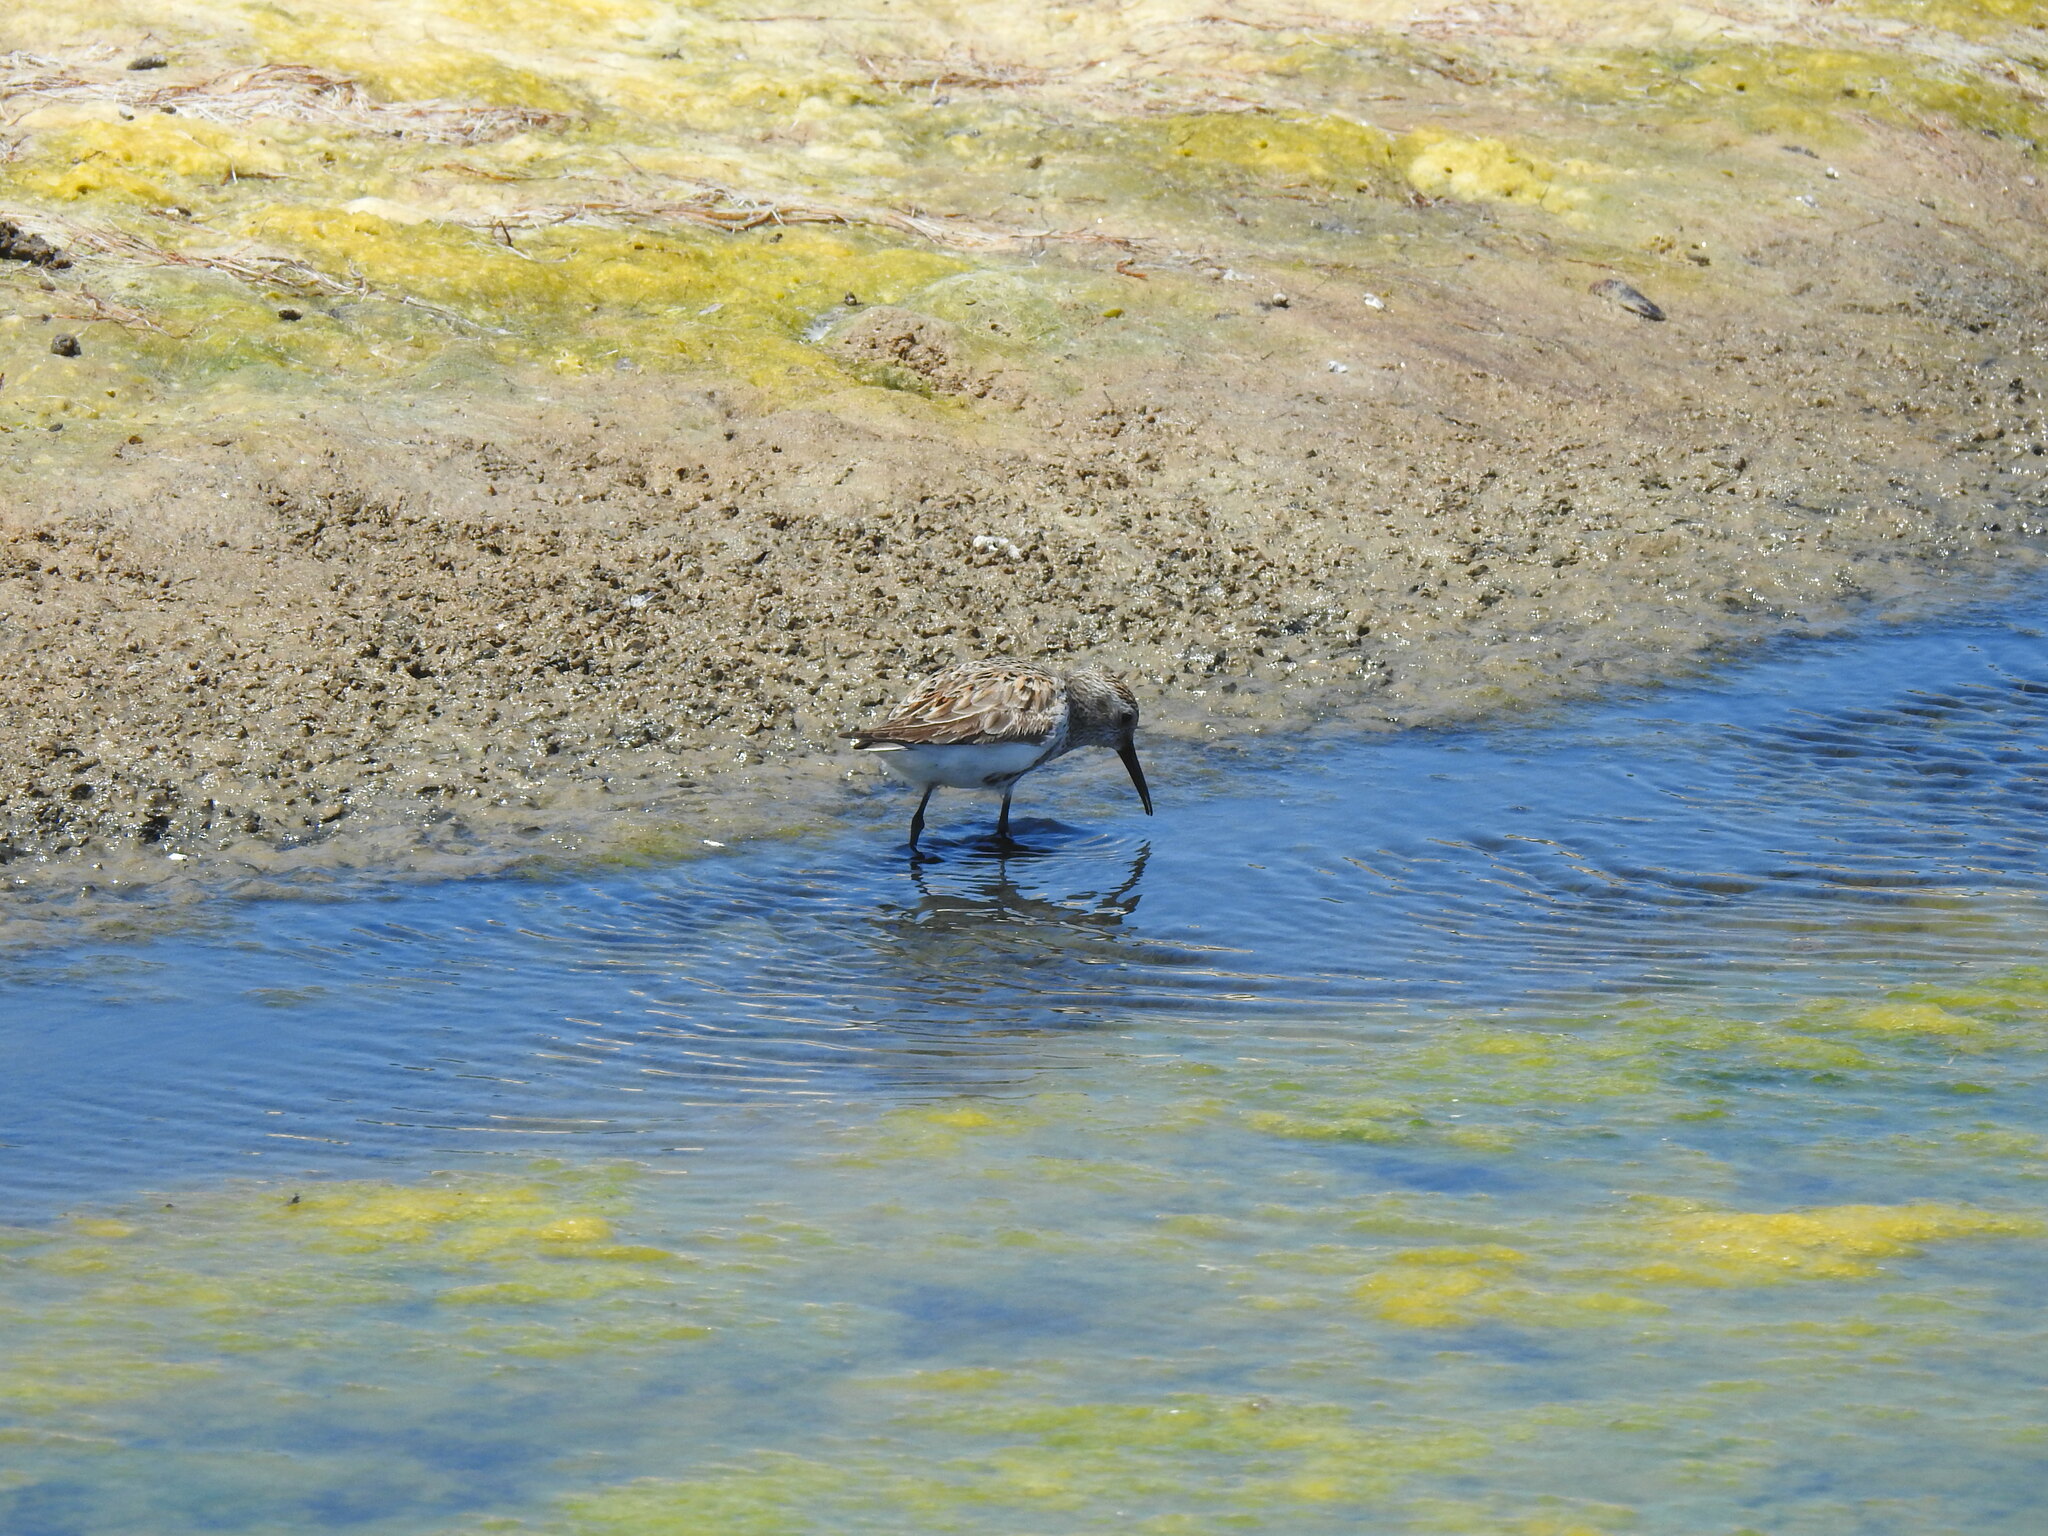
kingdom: Animalia
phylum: Chordata
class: Aves
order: Charadriiformes
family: Scolopacidae
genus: Calidris
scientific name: Calidris alpina
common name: Dunlin
